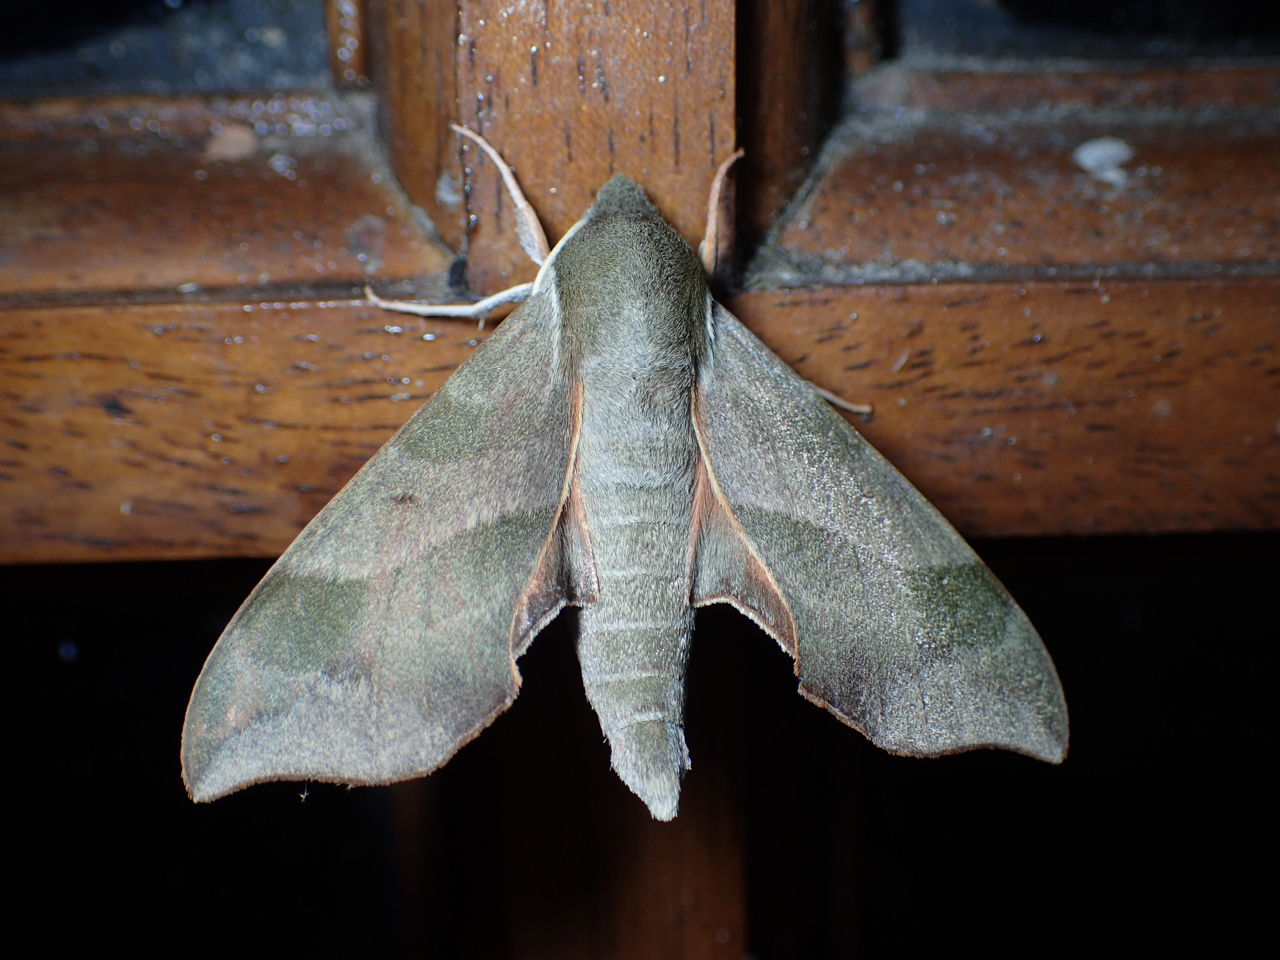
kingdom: Animalia
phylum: Arthropoda
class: Insecta
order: Lepidoptera
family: Sphingidae
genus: Darapsa
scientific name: Darapsa myron
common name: Hog sphinx
